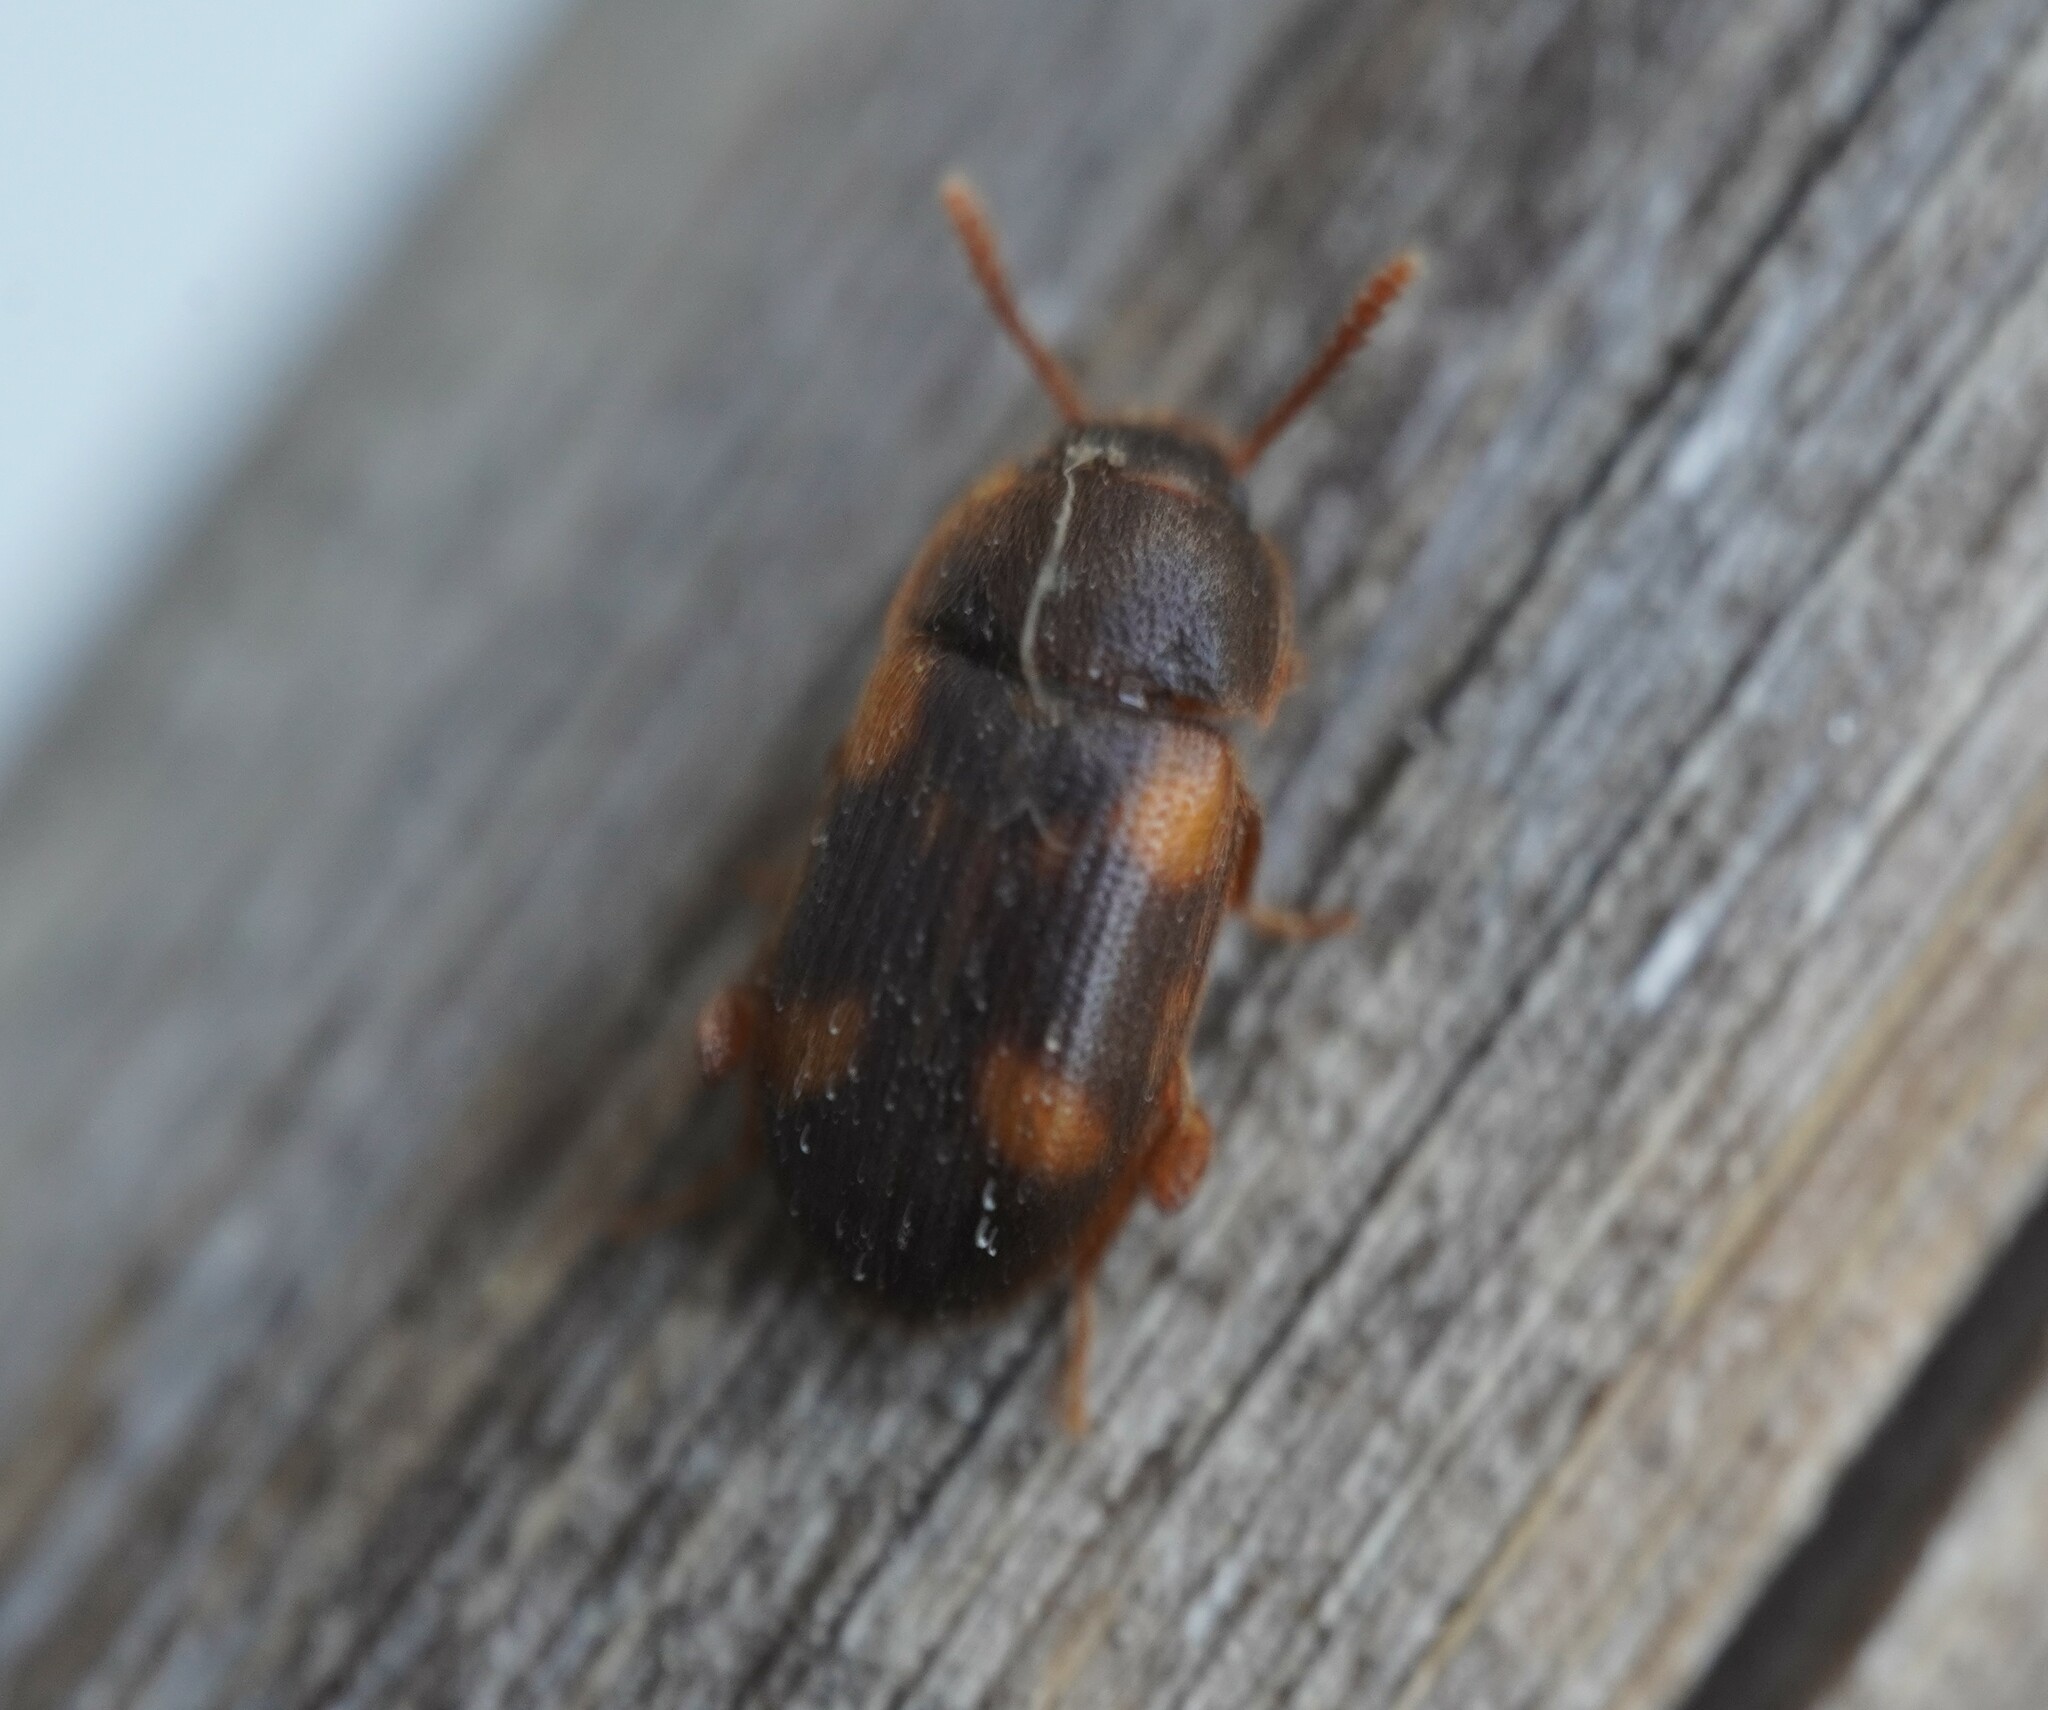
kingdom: Animalia
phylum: Arthropoda
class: Insecta
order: Coleoptera
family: Mycetophagidae
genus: Mycetophagus
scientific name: Mycetophagus quadriguttatus
